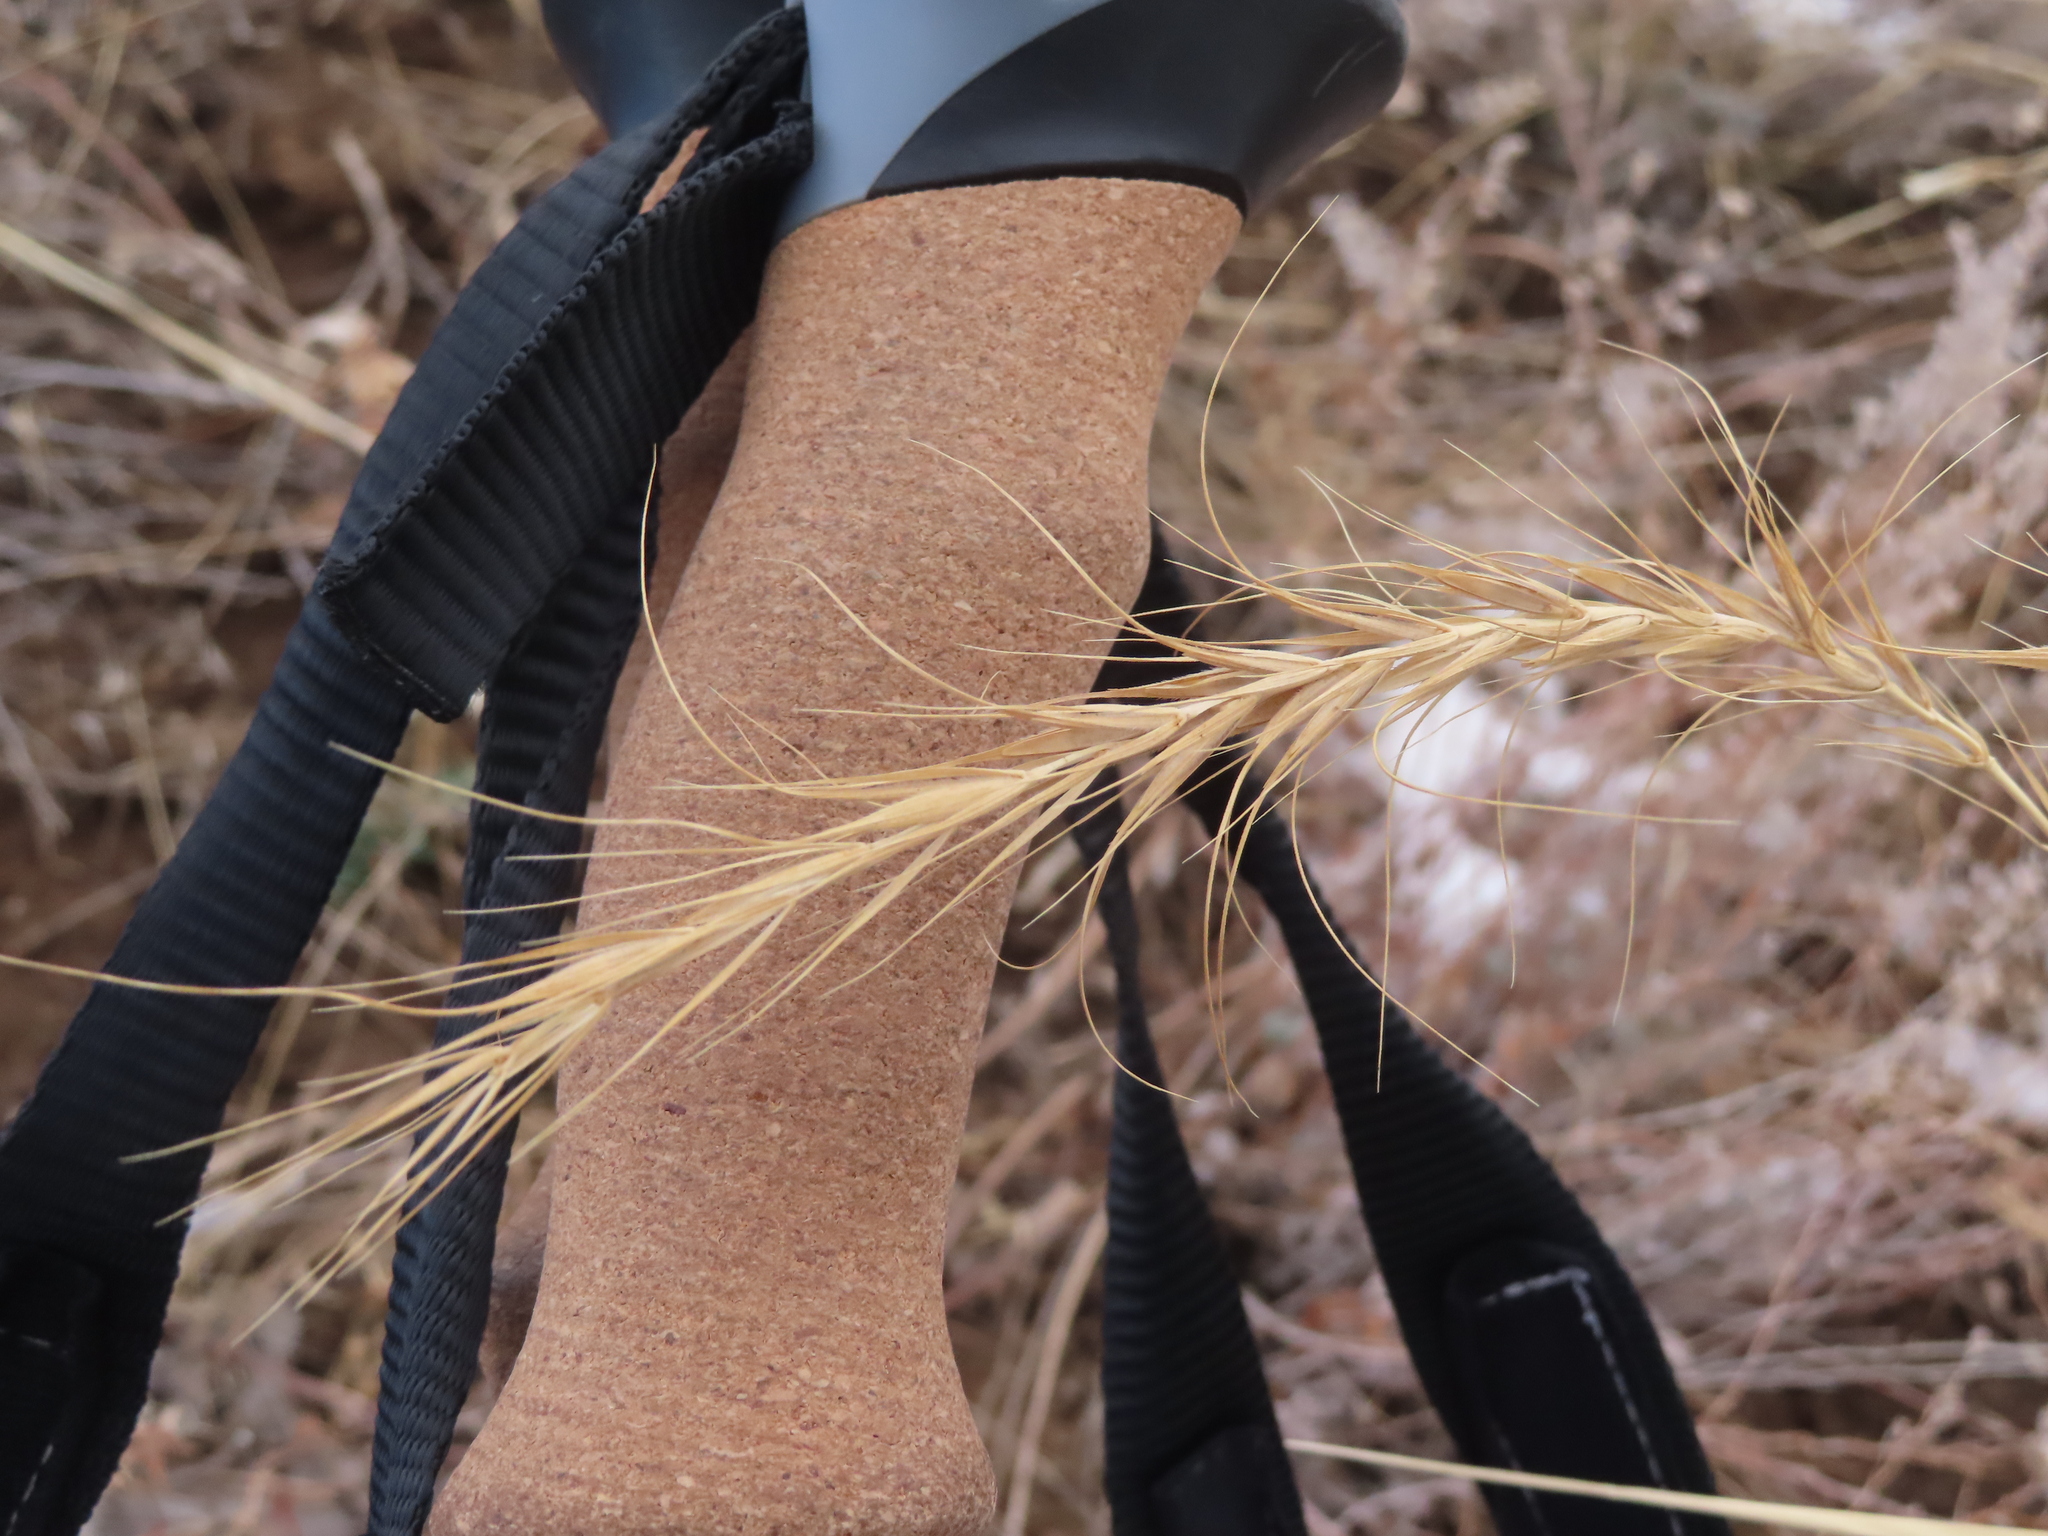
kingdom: Plantae
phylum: Tracheophyta
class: Liliopsida
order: Poales
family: Poaceae
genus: Elymus
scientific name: Elymus canadensis
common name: Canada wild rye
